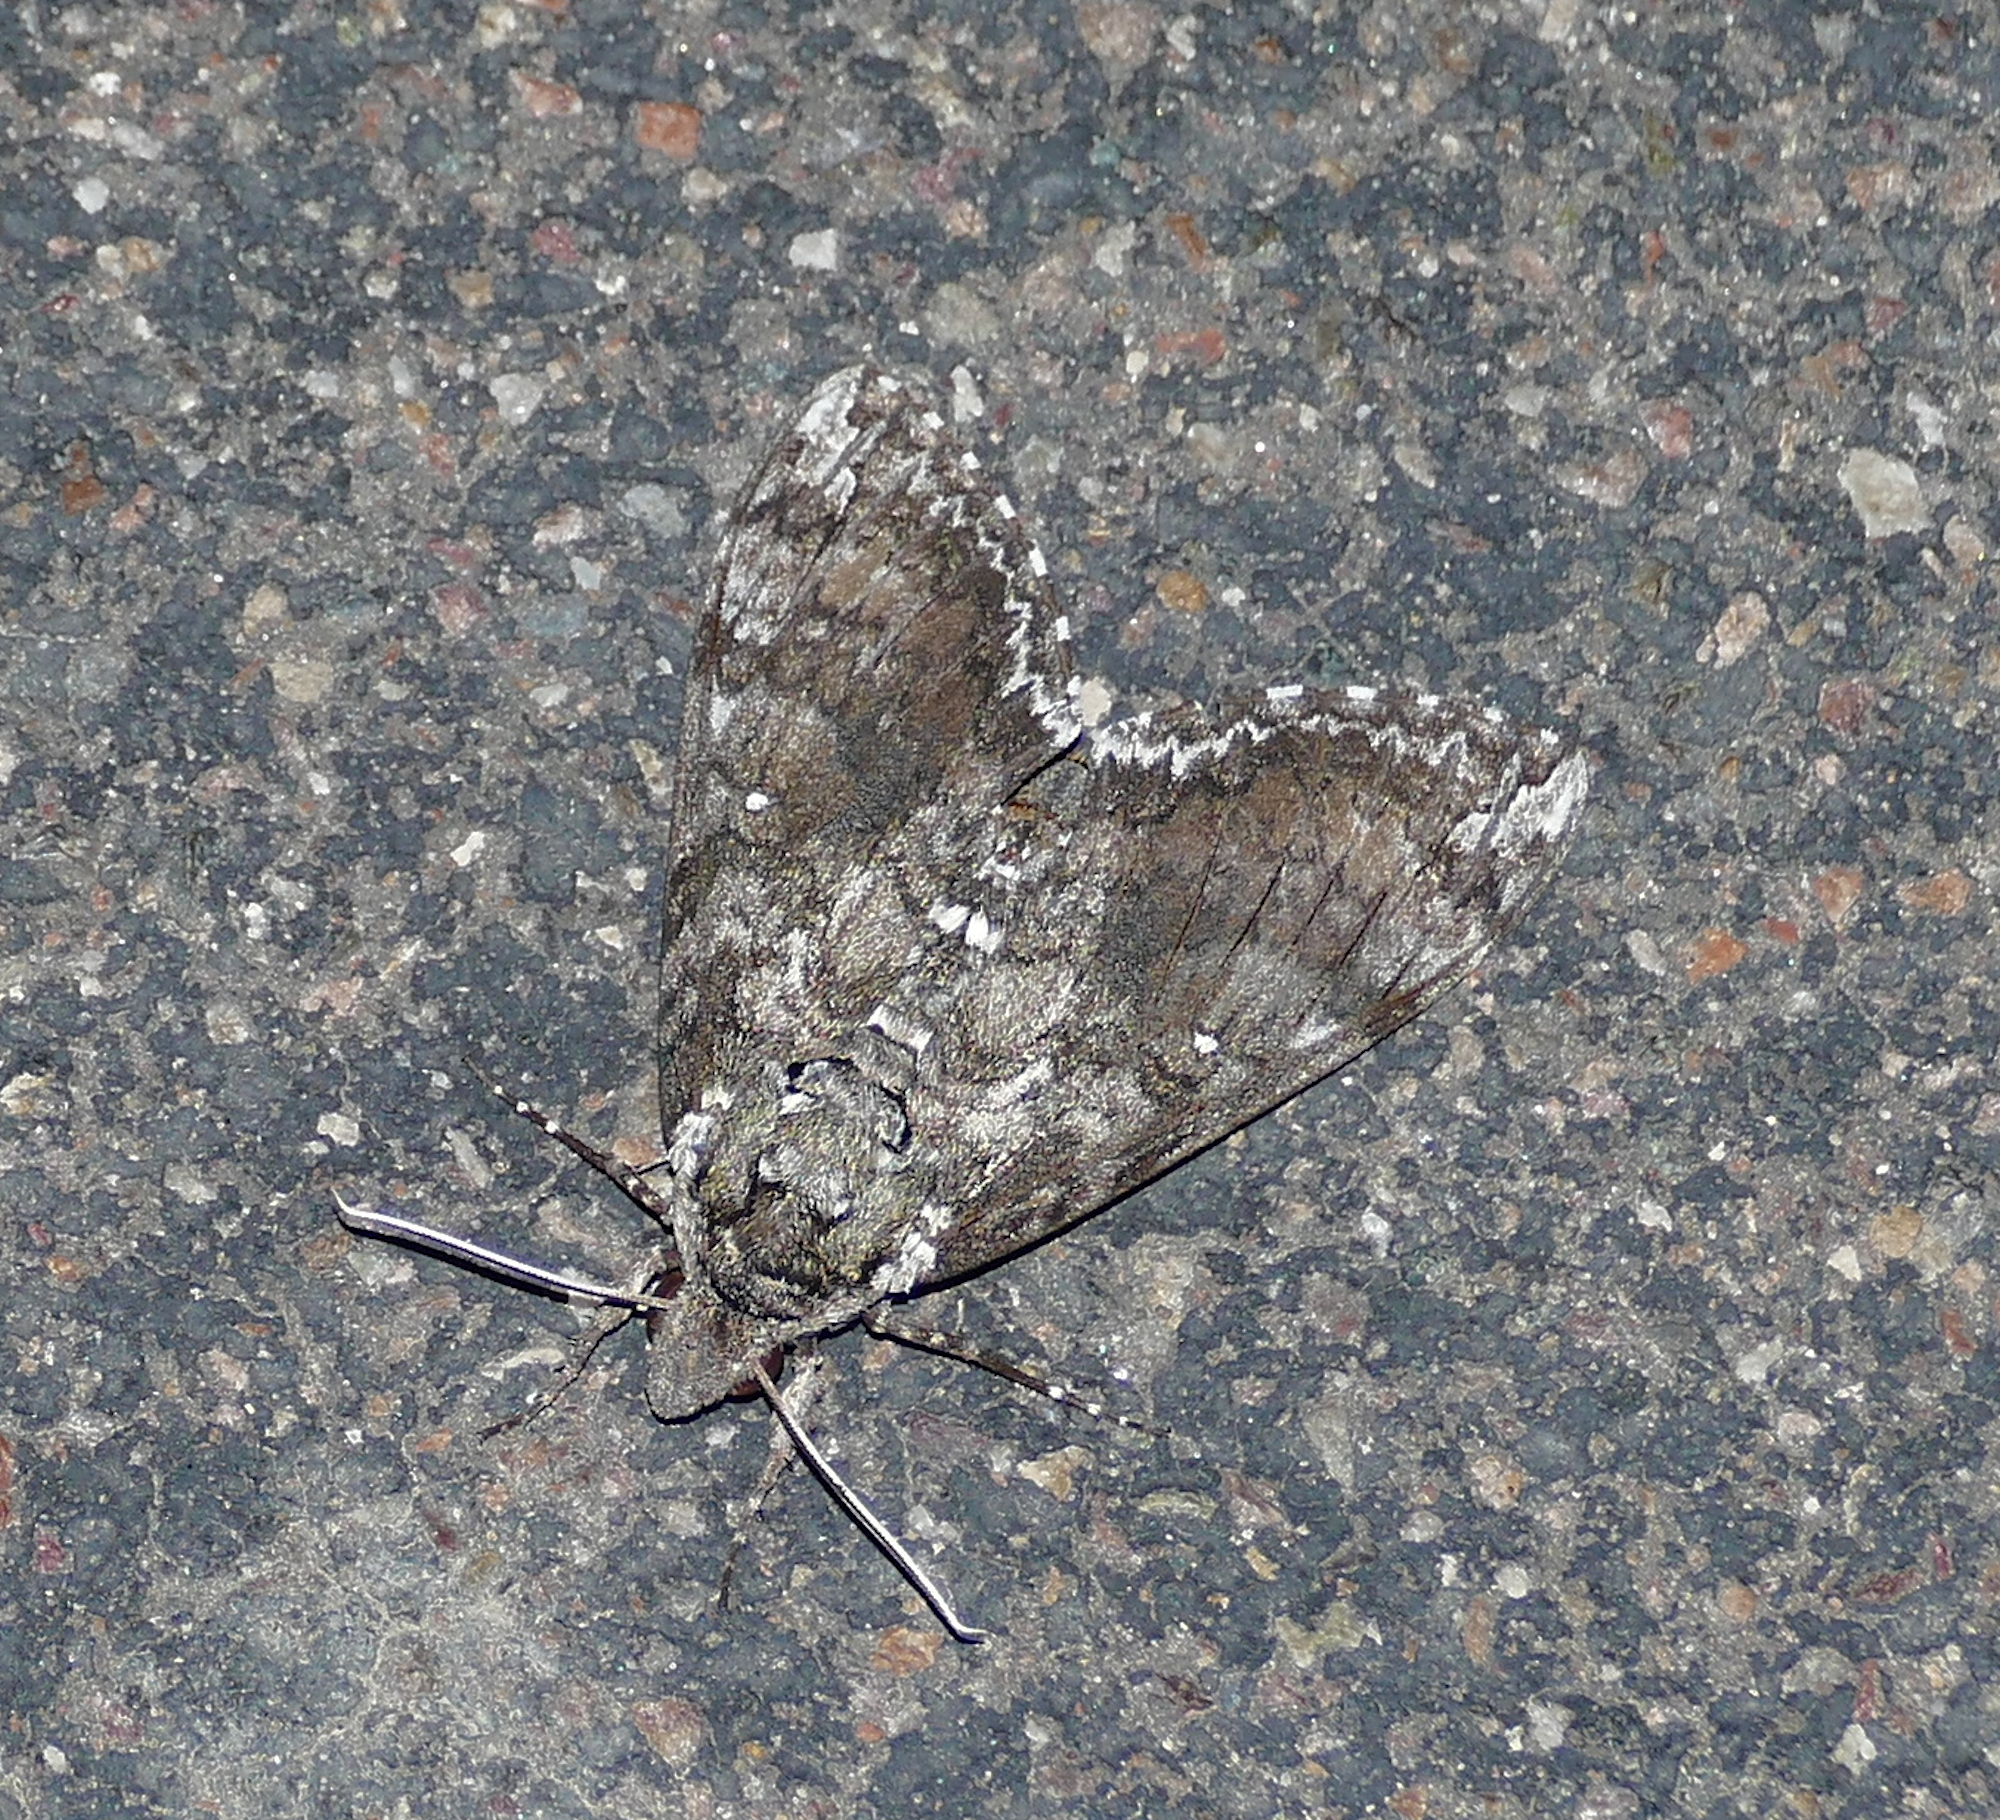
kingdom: Animalia
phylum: Arthropoda
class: Insecta
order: Lepidoptera
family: Sphingidae
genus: Manduca
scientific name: Manduca sexta
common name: Carolina sphinx
